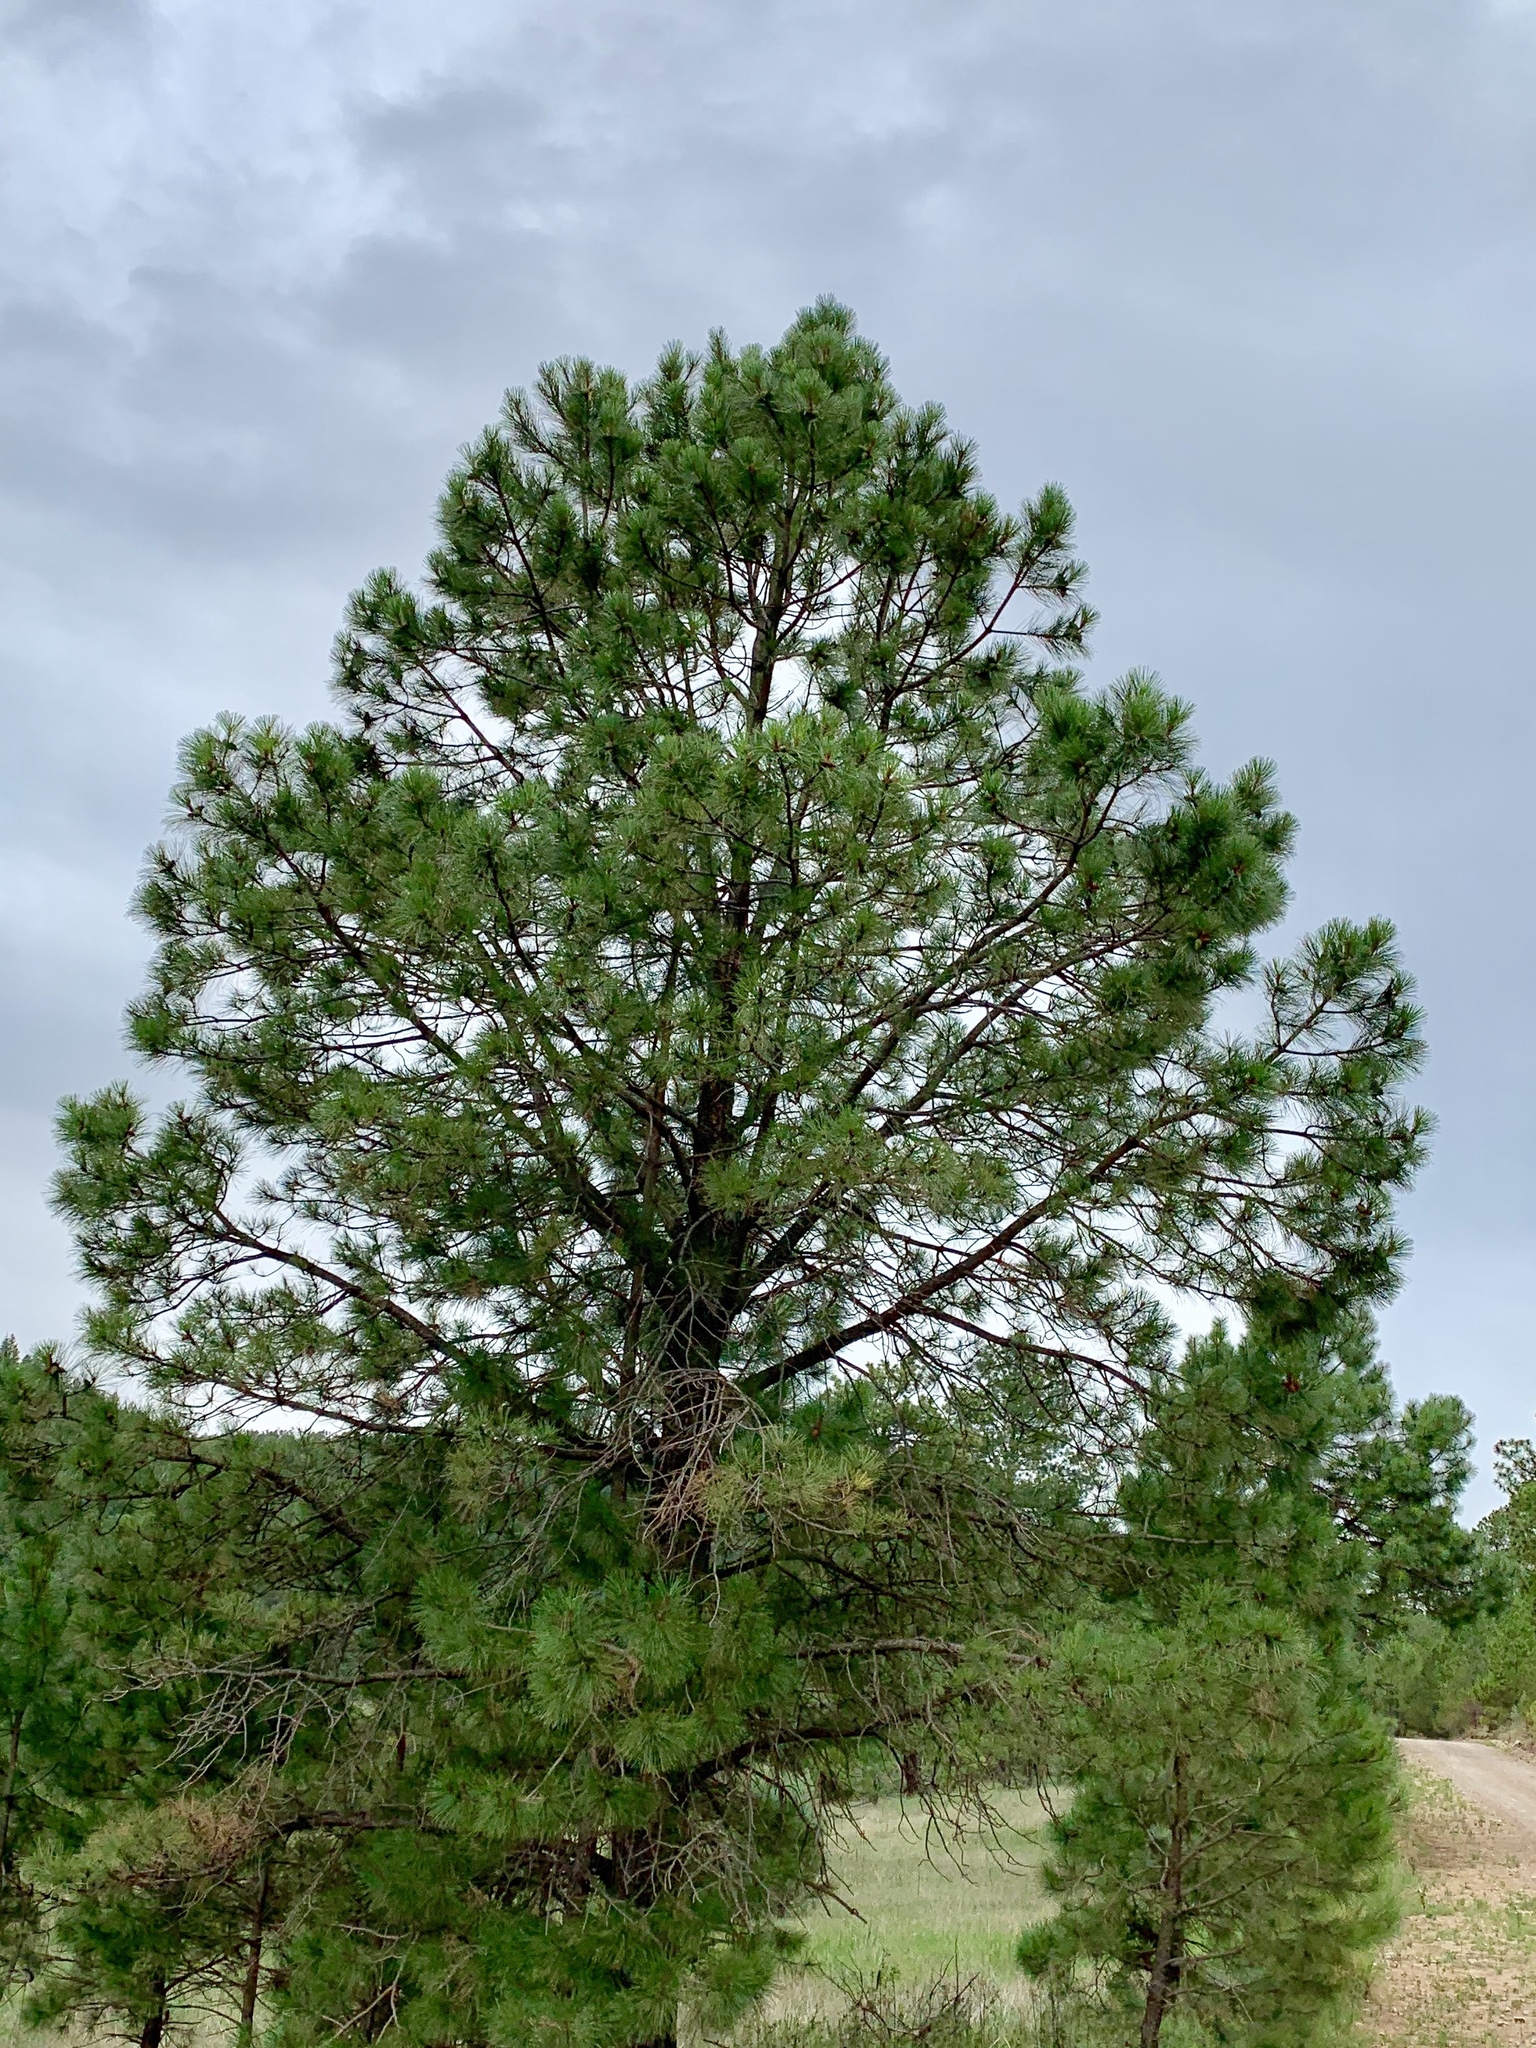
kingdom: Plantae
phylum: Tracheophyta
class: Pinopsida
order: Pinales
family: Pinaceae
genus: Pinus
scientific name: Pinus ponderosa
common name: Western yellow-pine
